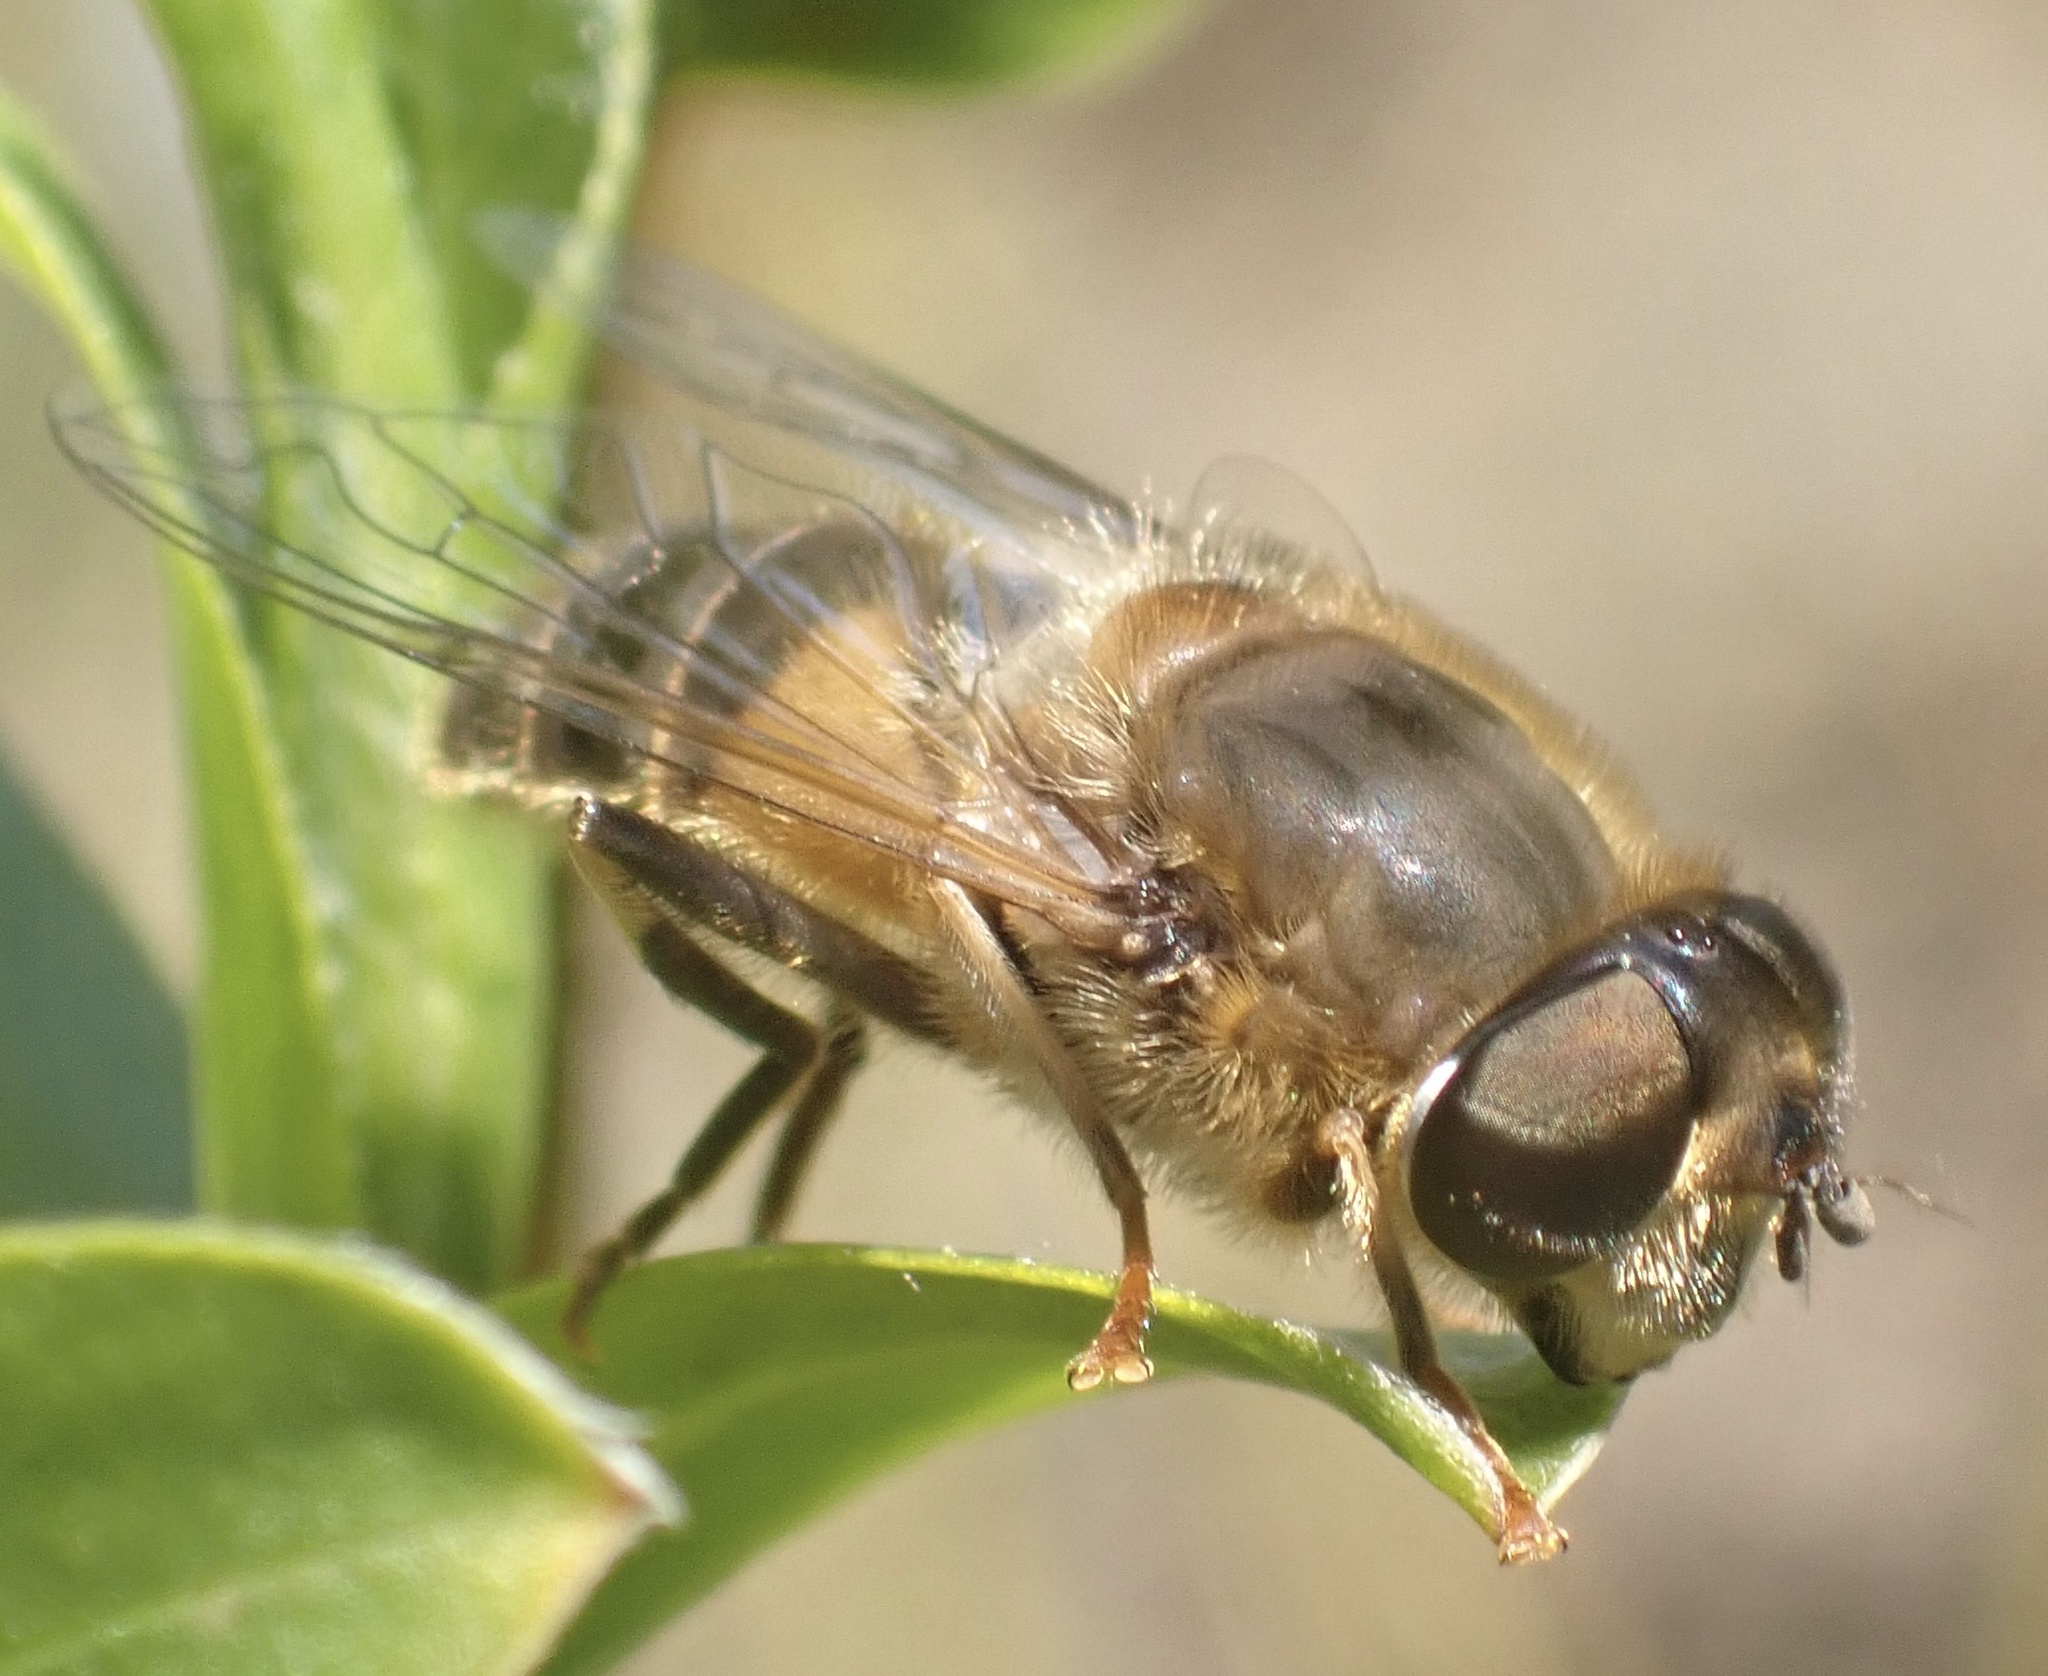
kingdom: Animalia
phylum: Arthropoda
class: Insecta
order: Diptera
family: Syrphidae
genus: Eristalis
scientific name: Eristalis pertinax
